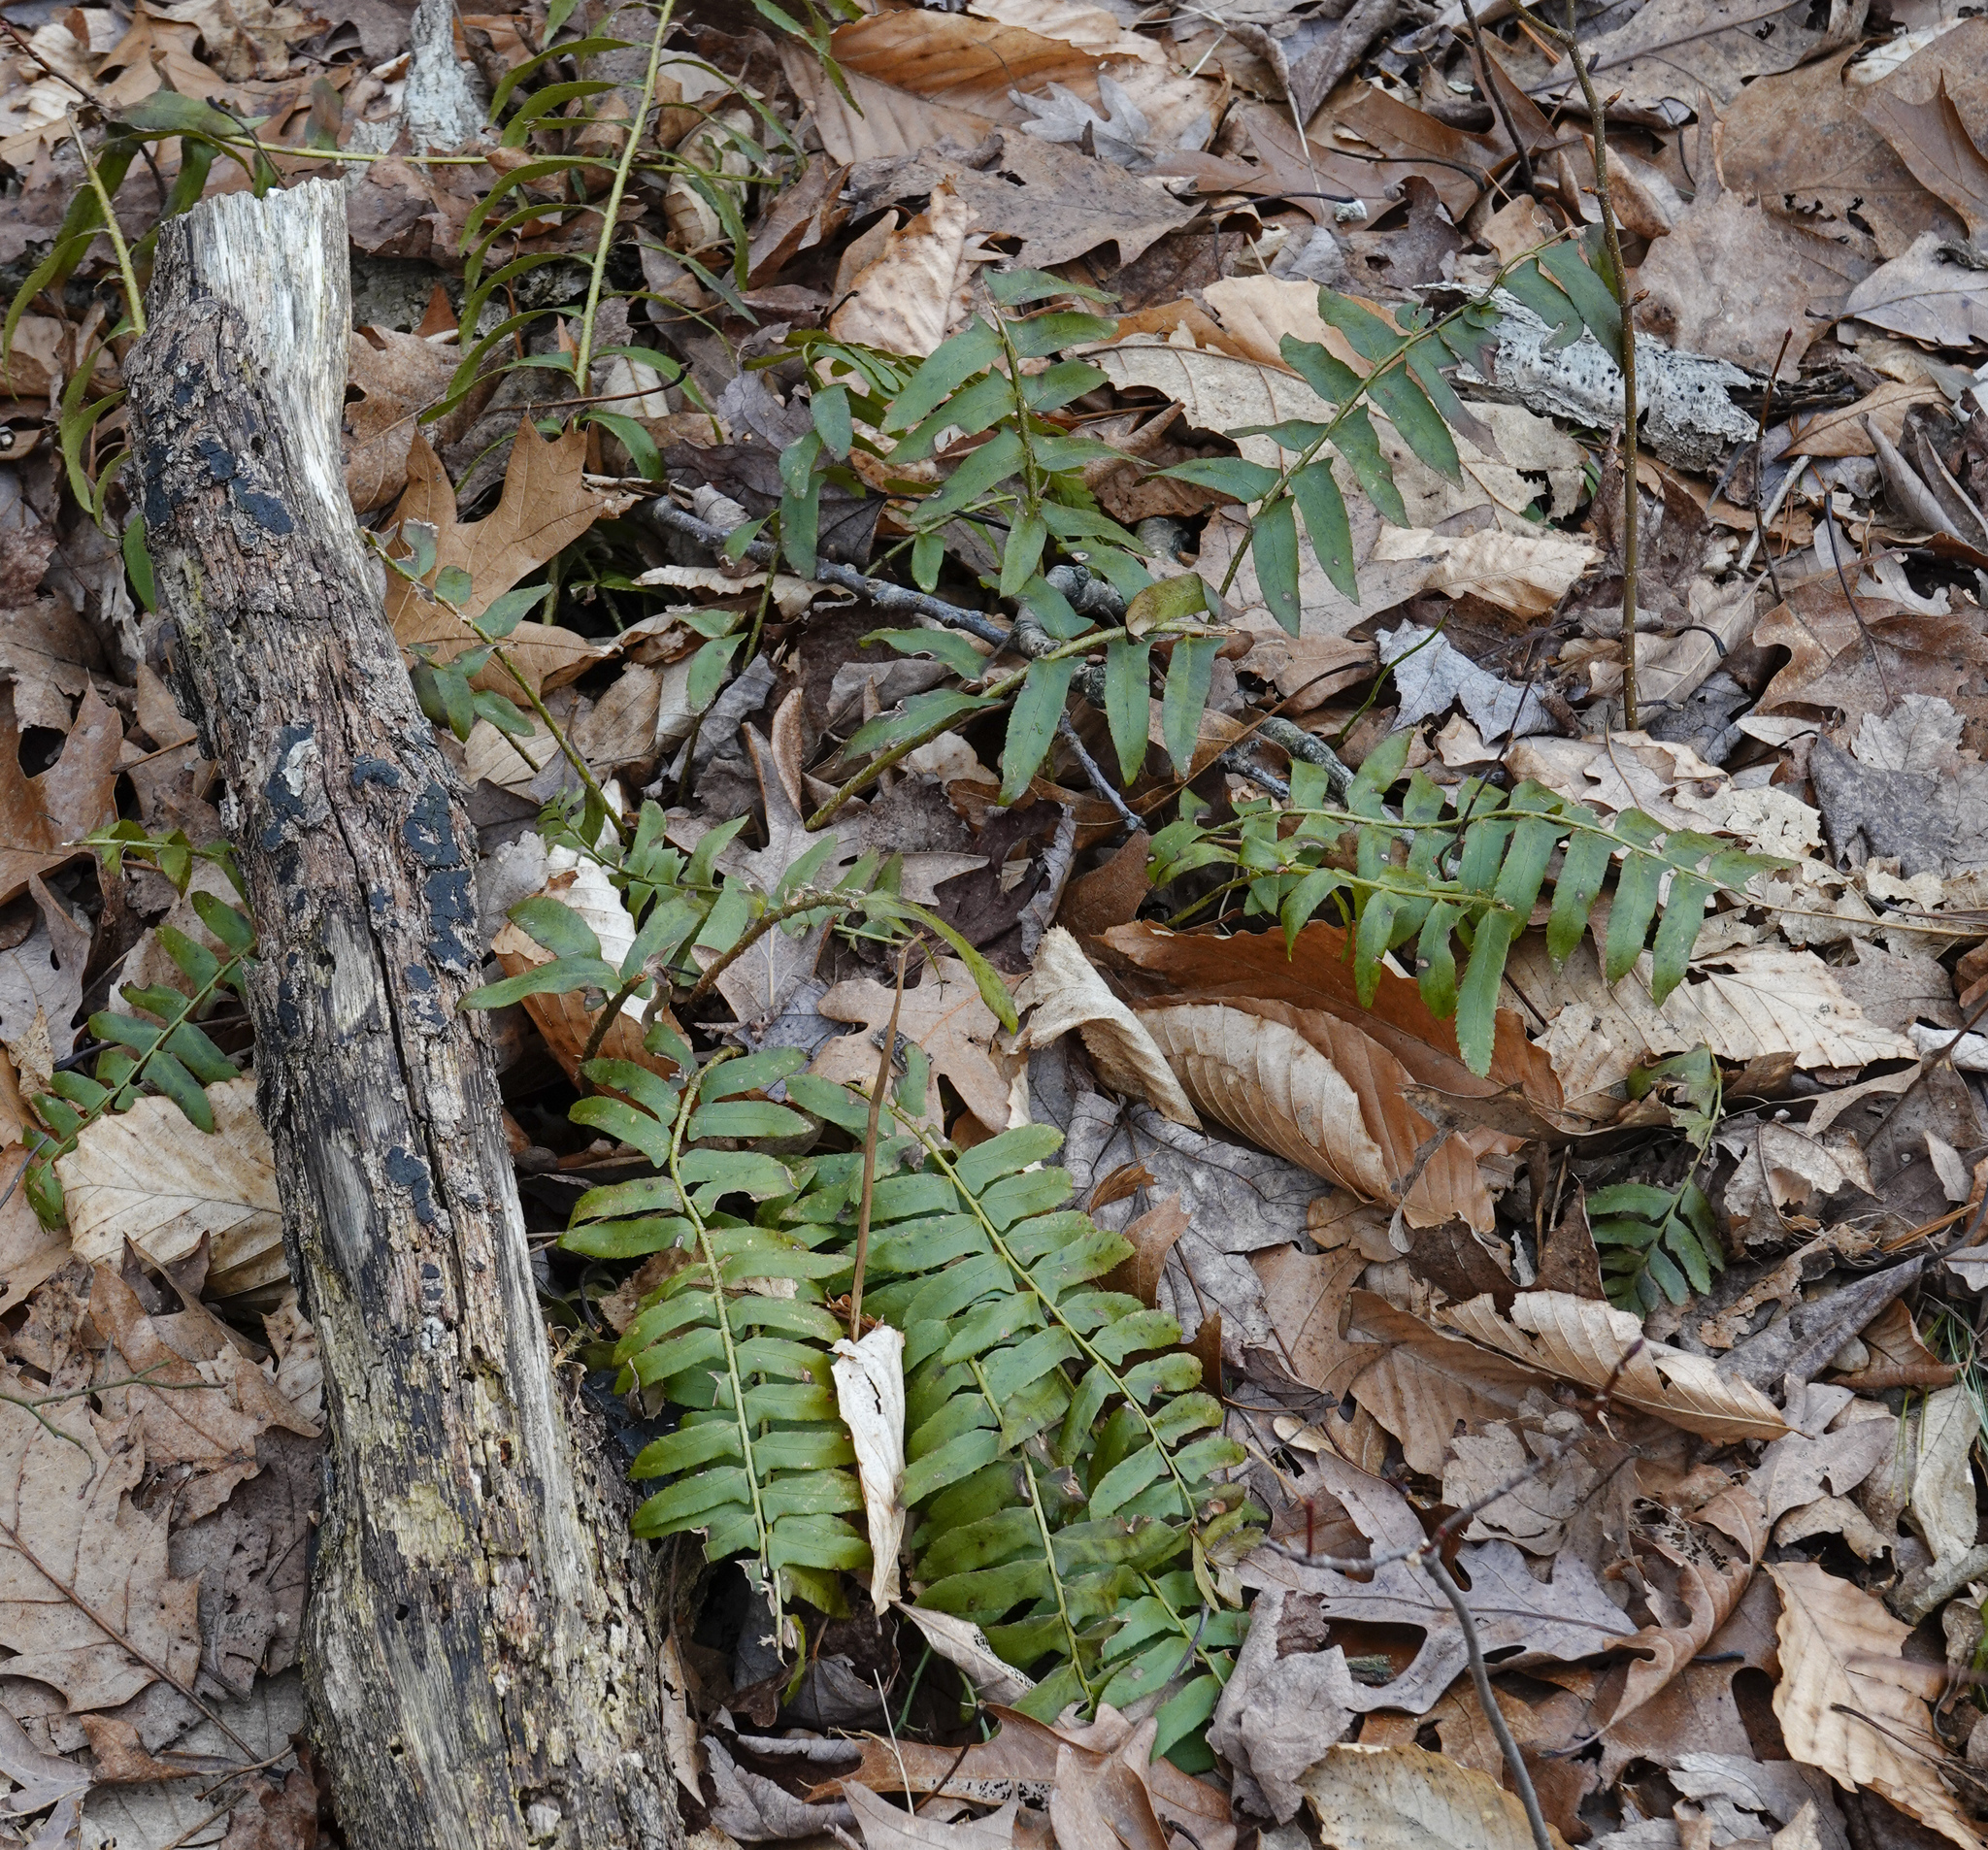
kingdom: Plantae
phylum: Tracheophyta
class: Polypodiopsida
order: Polypodiales
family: Dryopteridaceae
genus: Polystichum
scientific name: Polystichum acrostichoides
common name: Christmas fern
